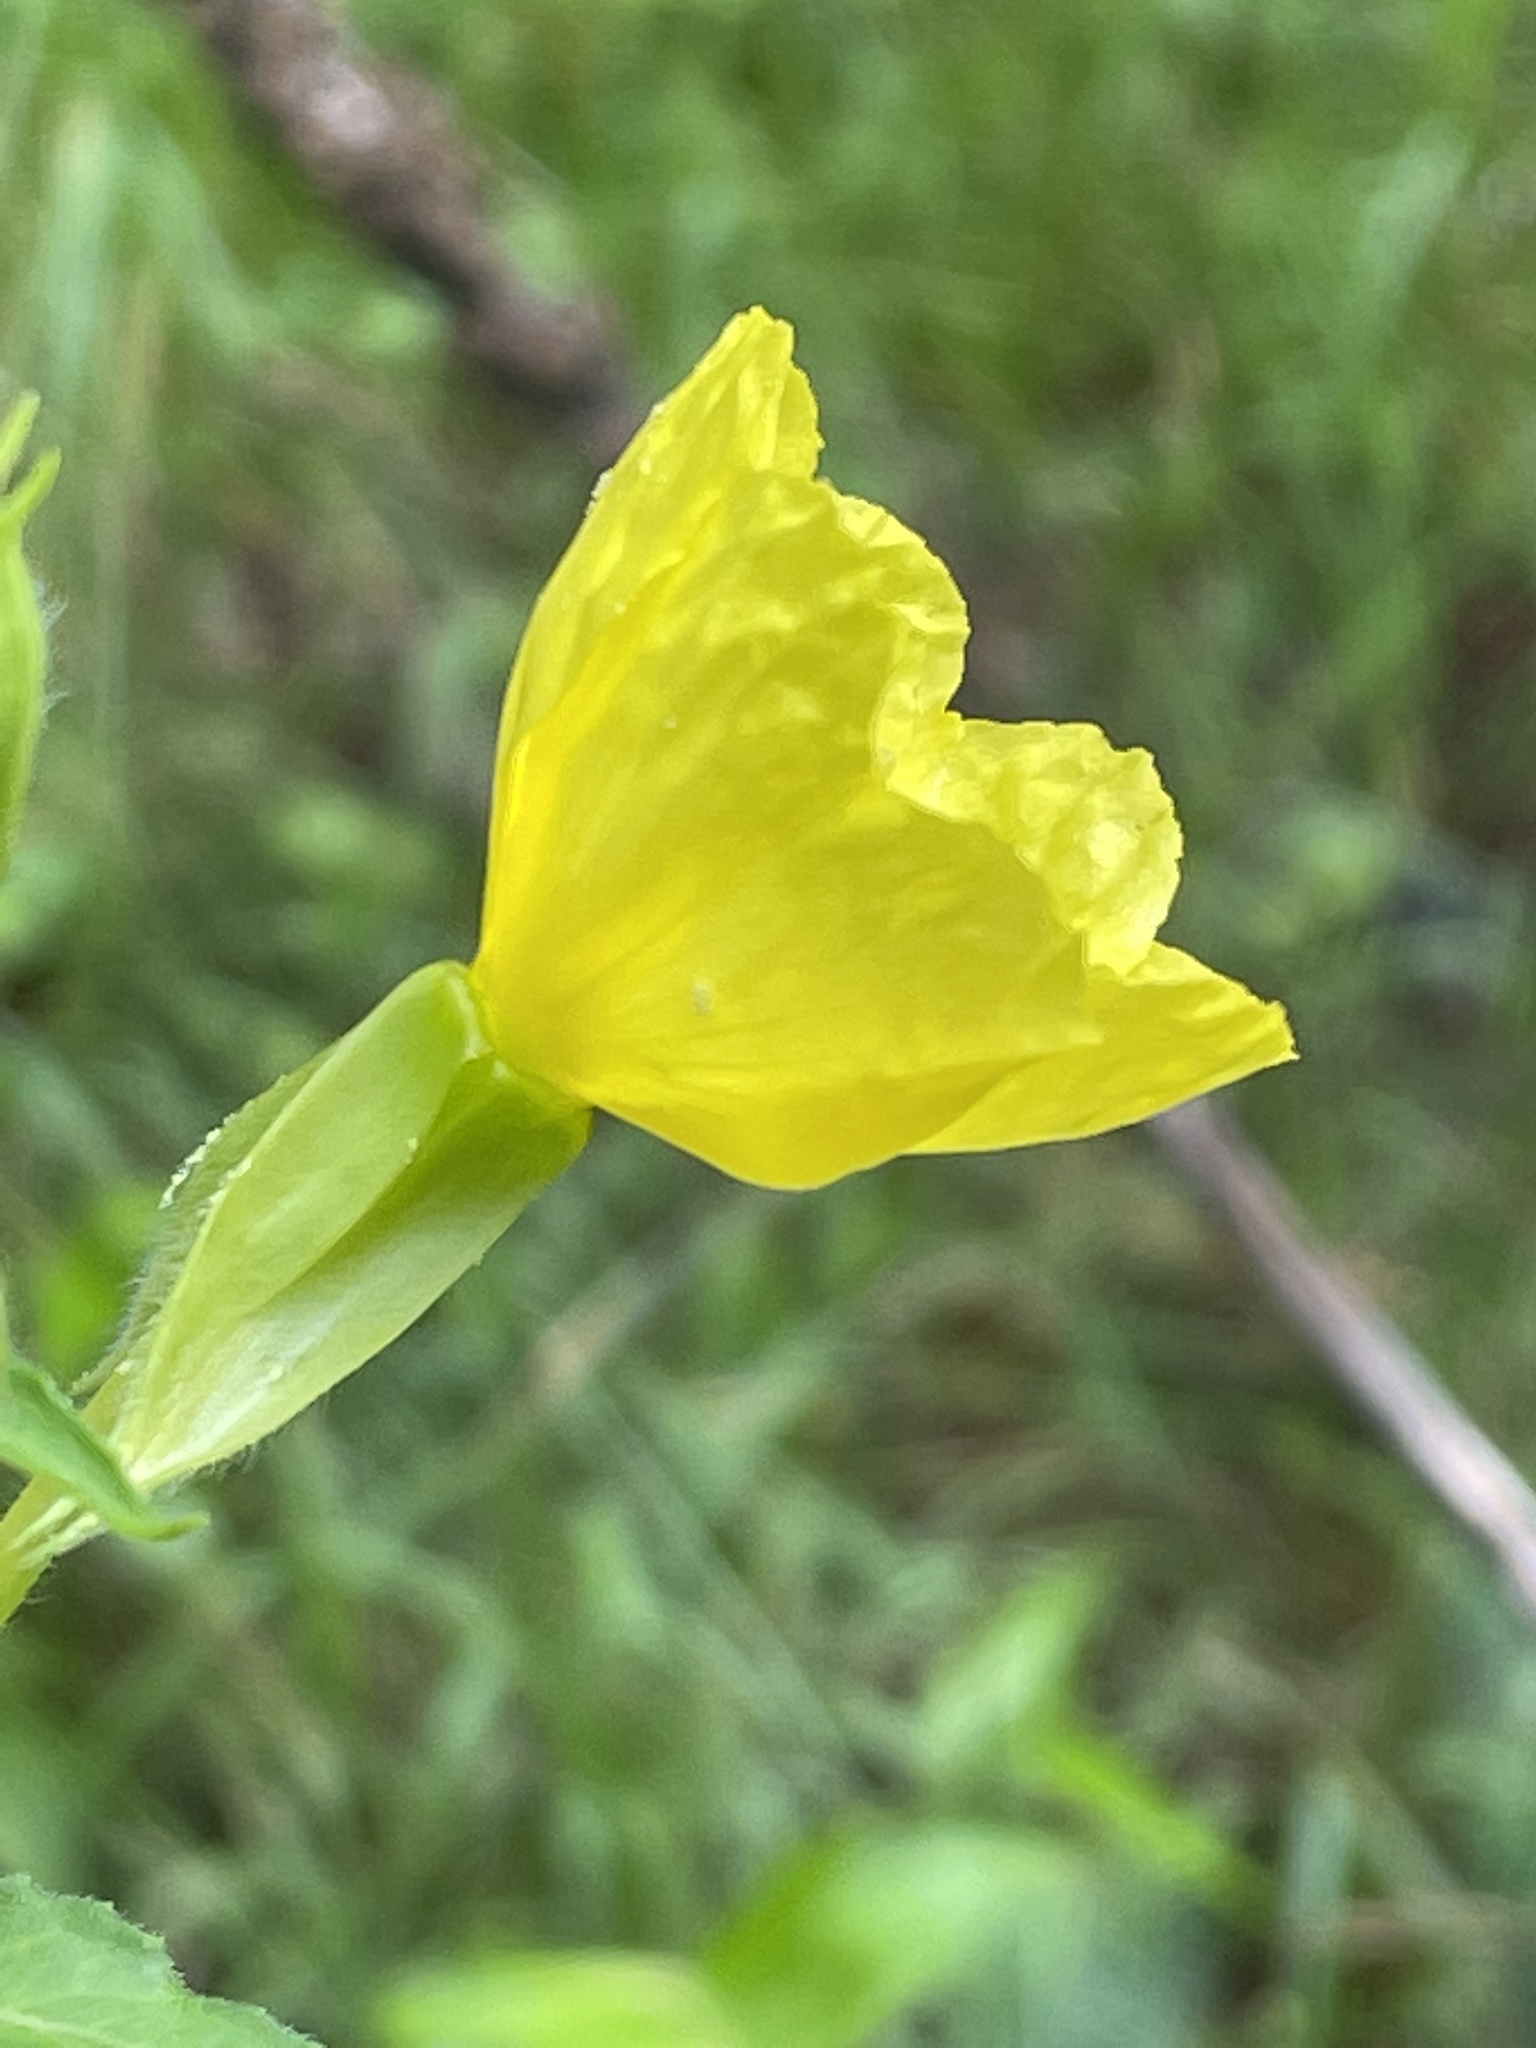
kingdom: Plantae
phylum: Tracheophyta
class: Magnoliopsida
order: Myrtales
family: Onagraceae
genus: Oenothera
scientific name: Oenothera biennis
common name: Common evening-primrose
